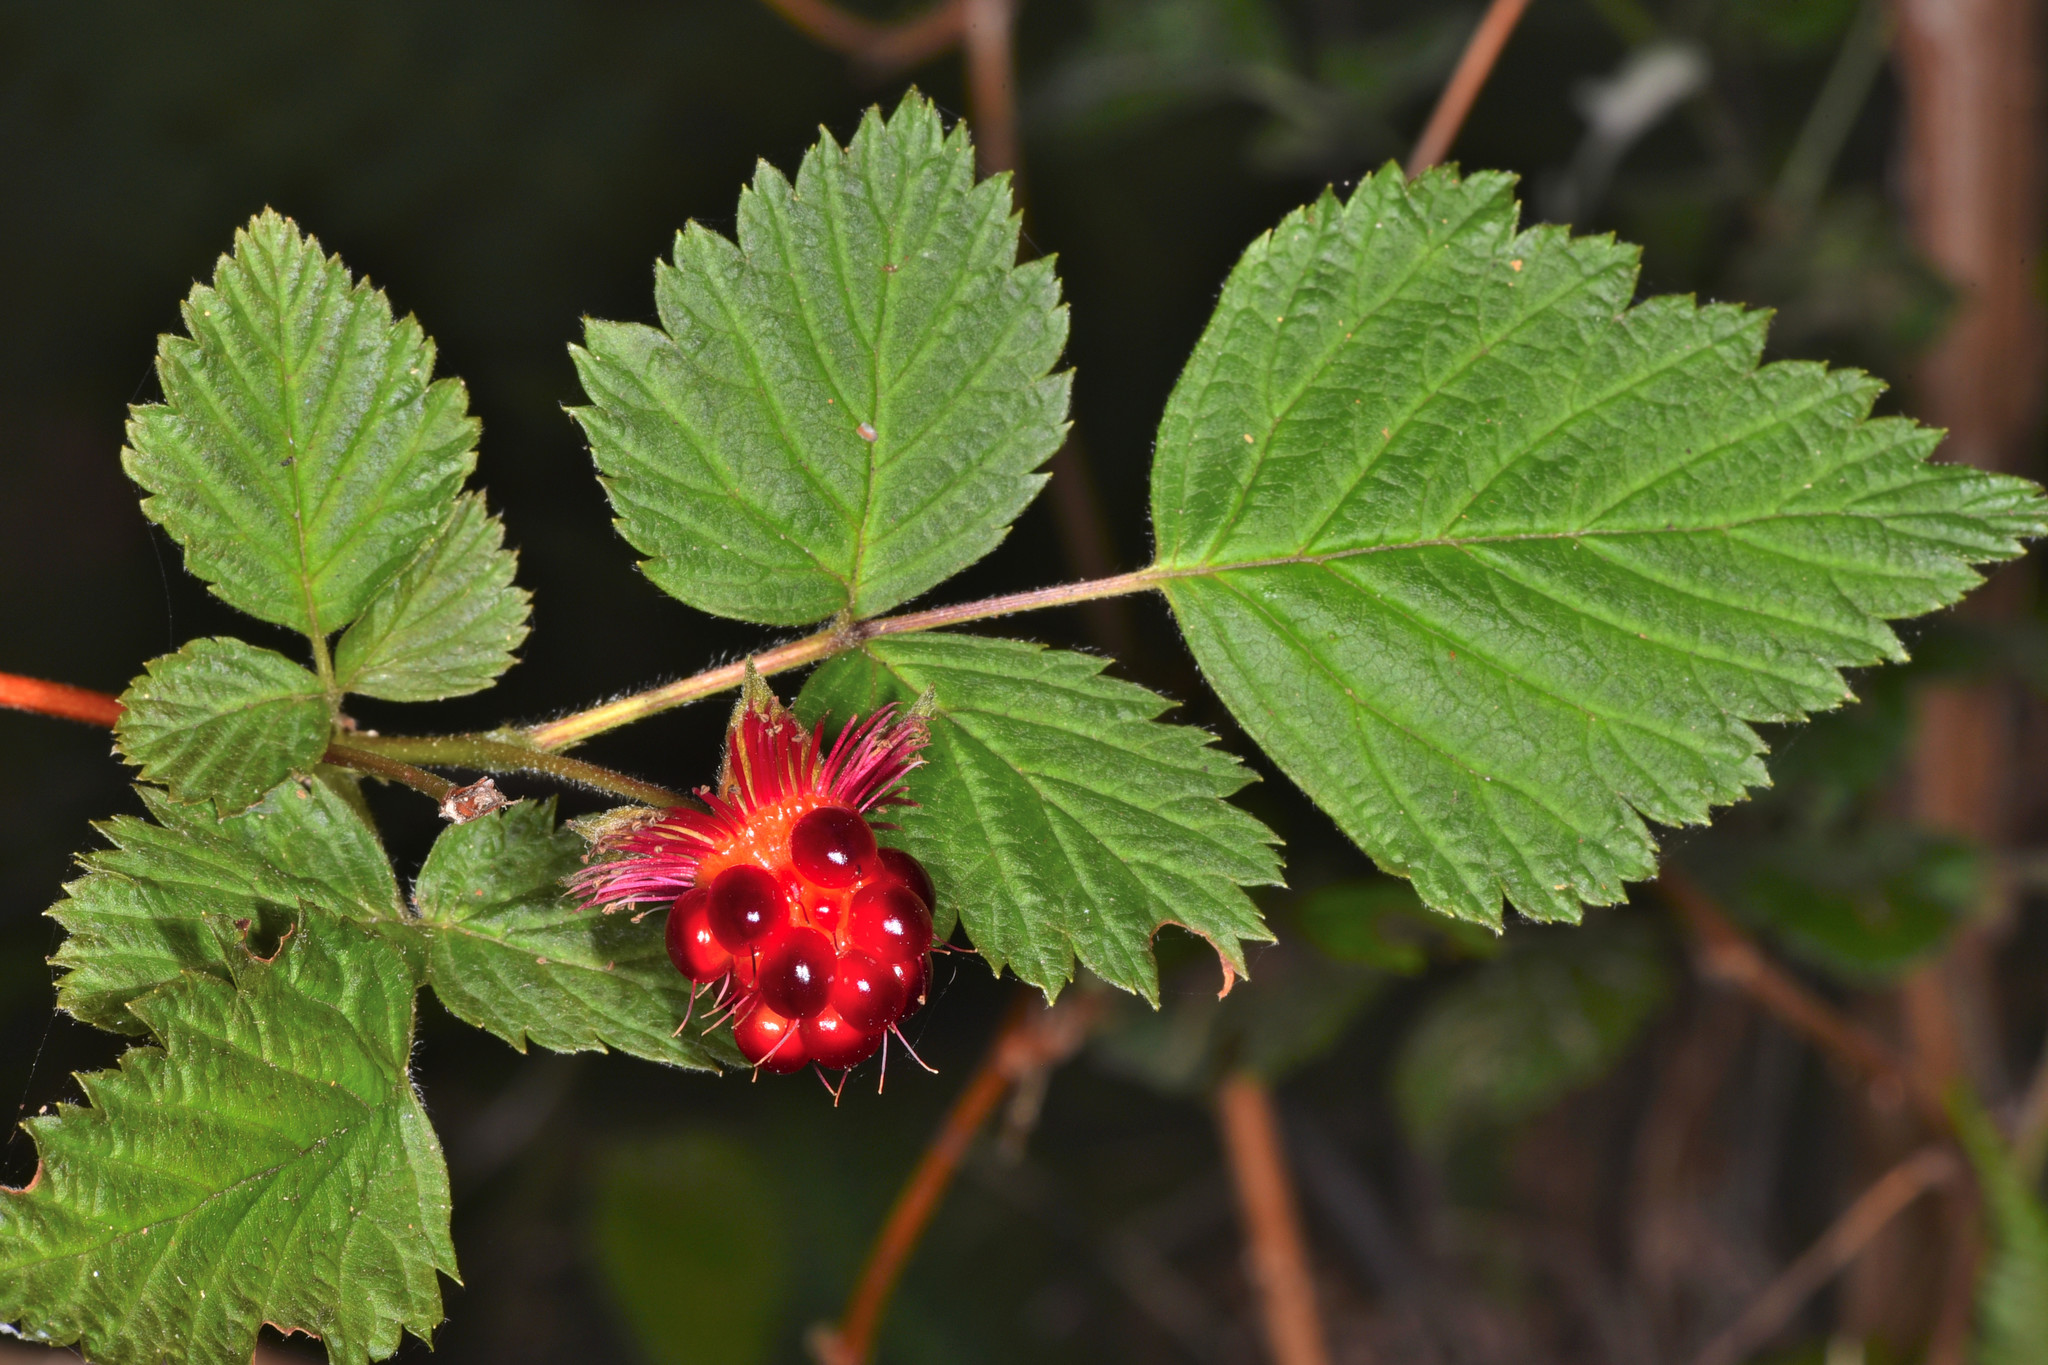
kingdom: Plantae
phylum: Tracheophyta
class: Magnoliopsida
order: Rosales
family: Rosaceae
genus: Rubus
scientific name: Rubus spectabilis
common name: Salmonberry
